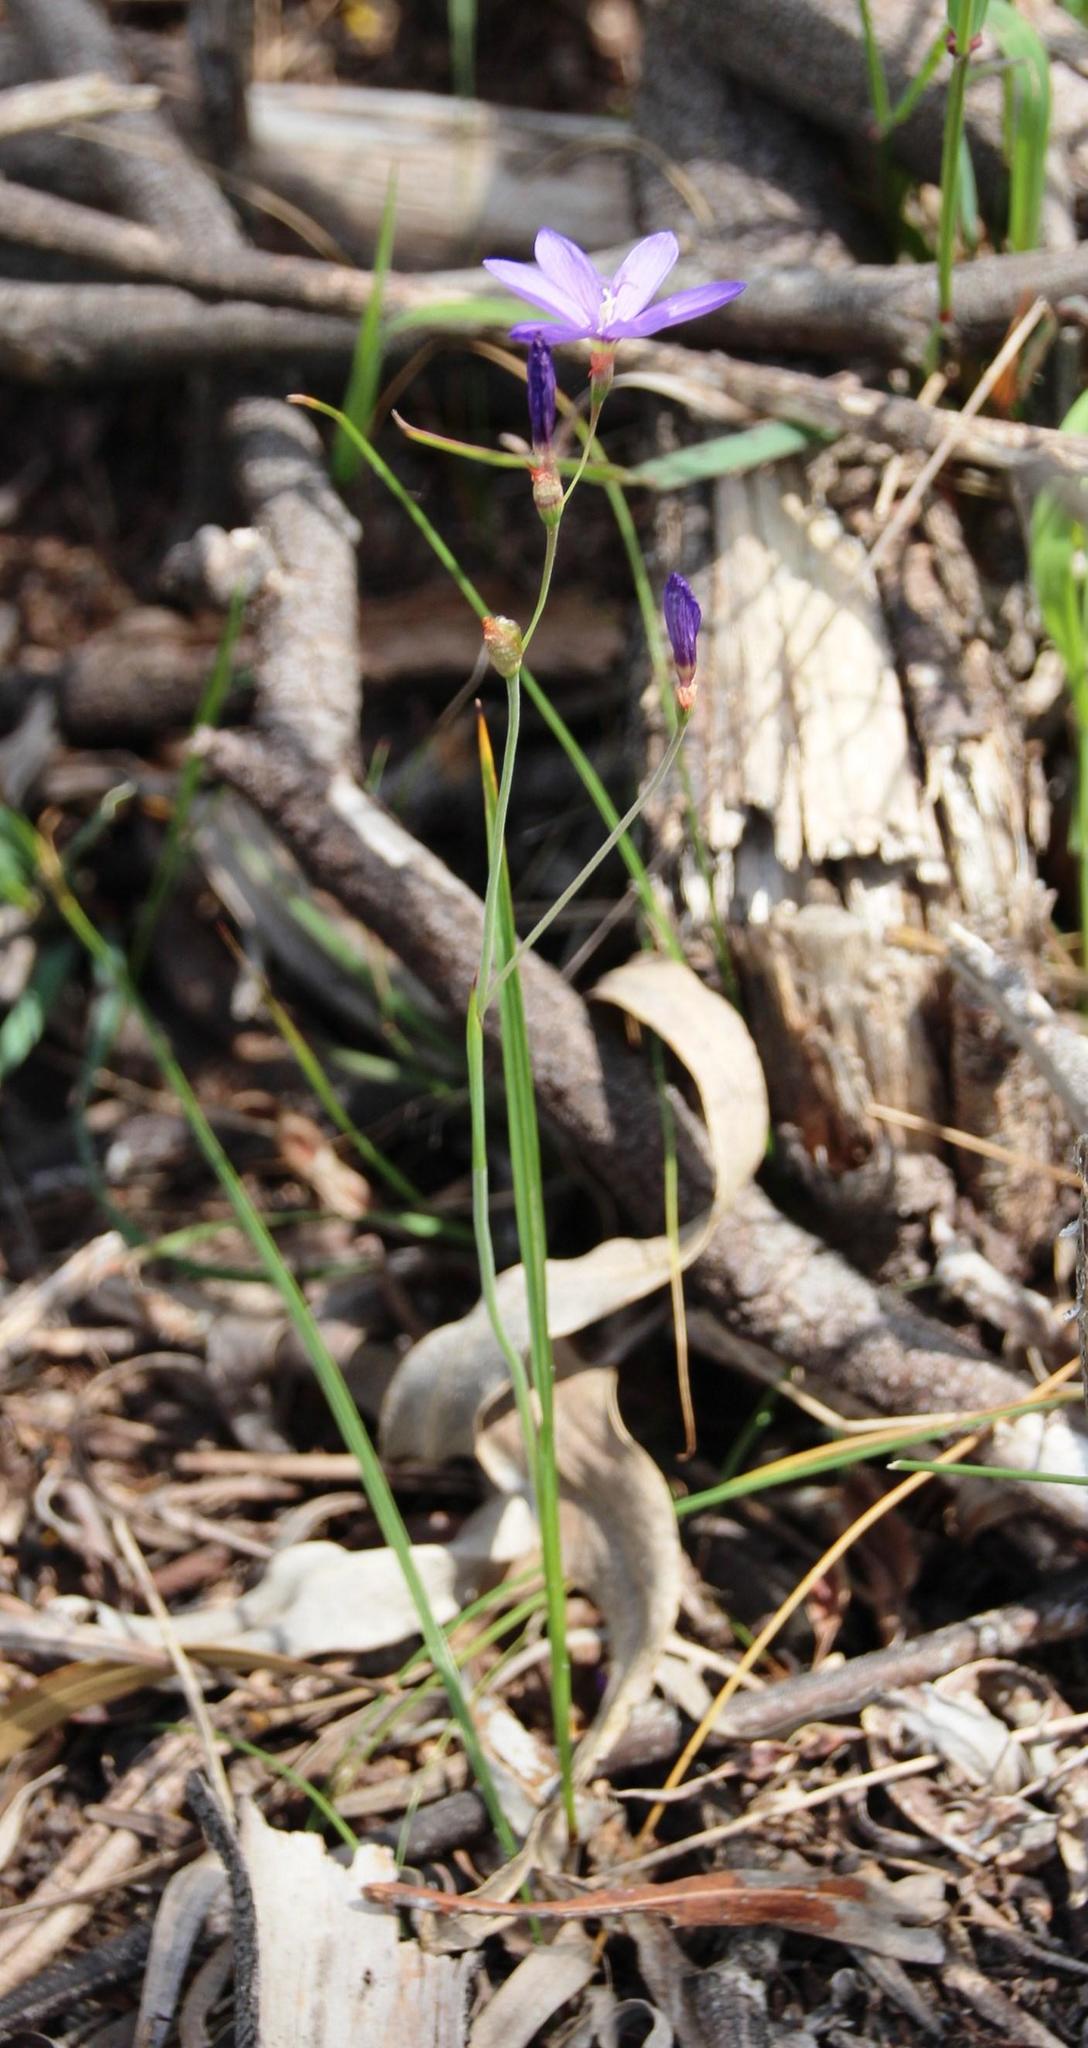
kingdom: Plantae
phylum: Tracheophyta
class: Liliopsida
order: Asparagales
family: Iridaceae
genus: Geissorhiza
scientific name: Geissorhiza aspera
